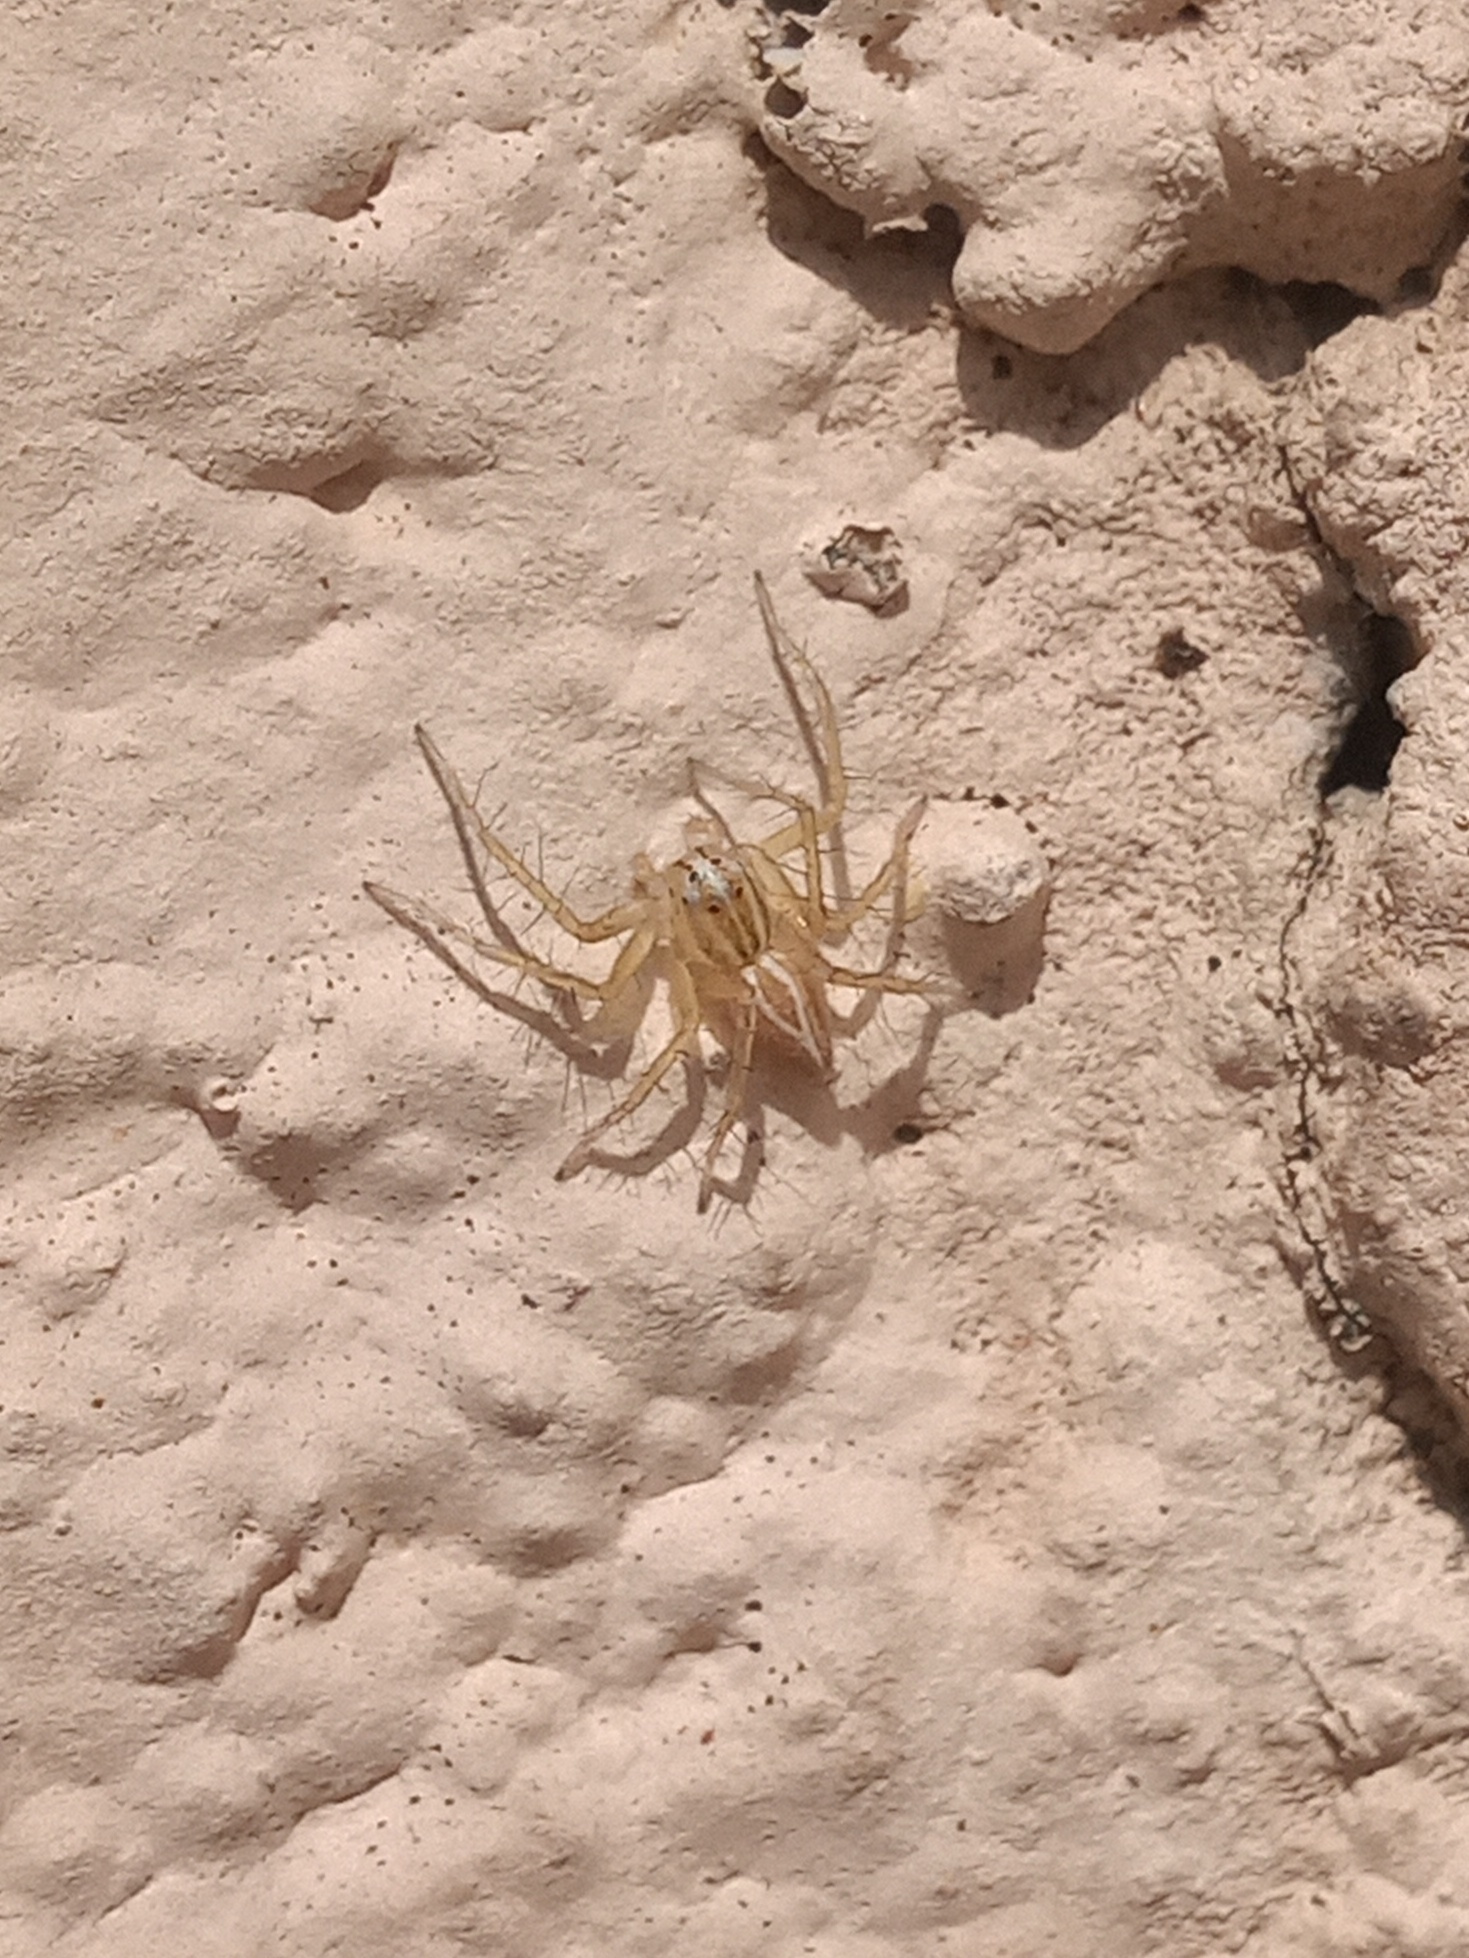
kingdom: Animalia
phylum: Arthropoda
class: Arachnida
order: Araneae
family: Oxyopidae
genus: Oxyopes
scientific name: Oxyopes salticus
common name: Lynx spiders
